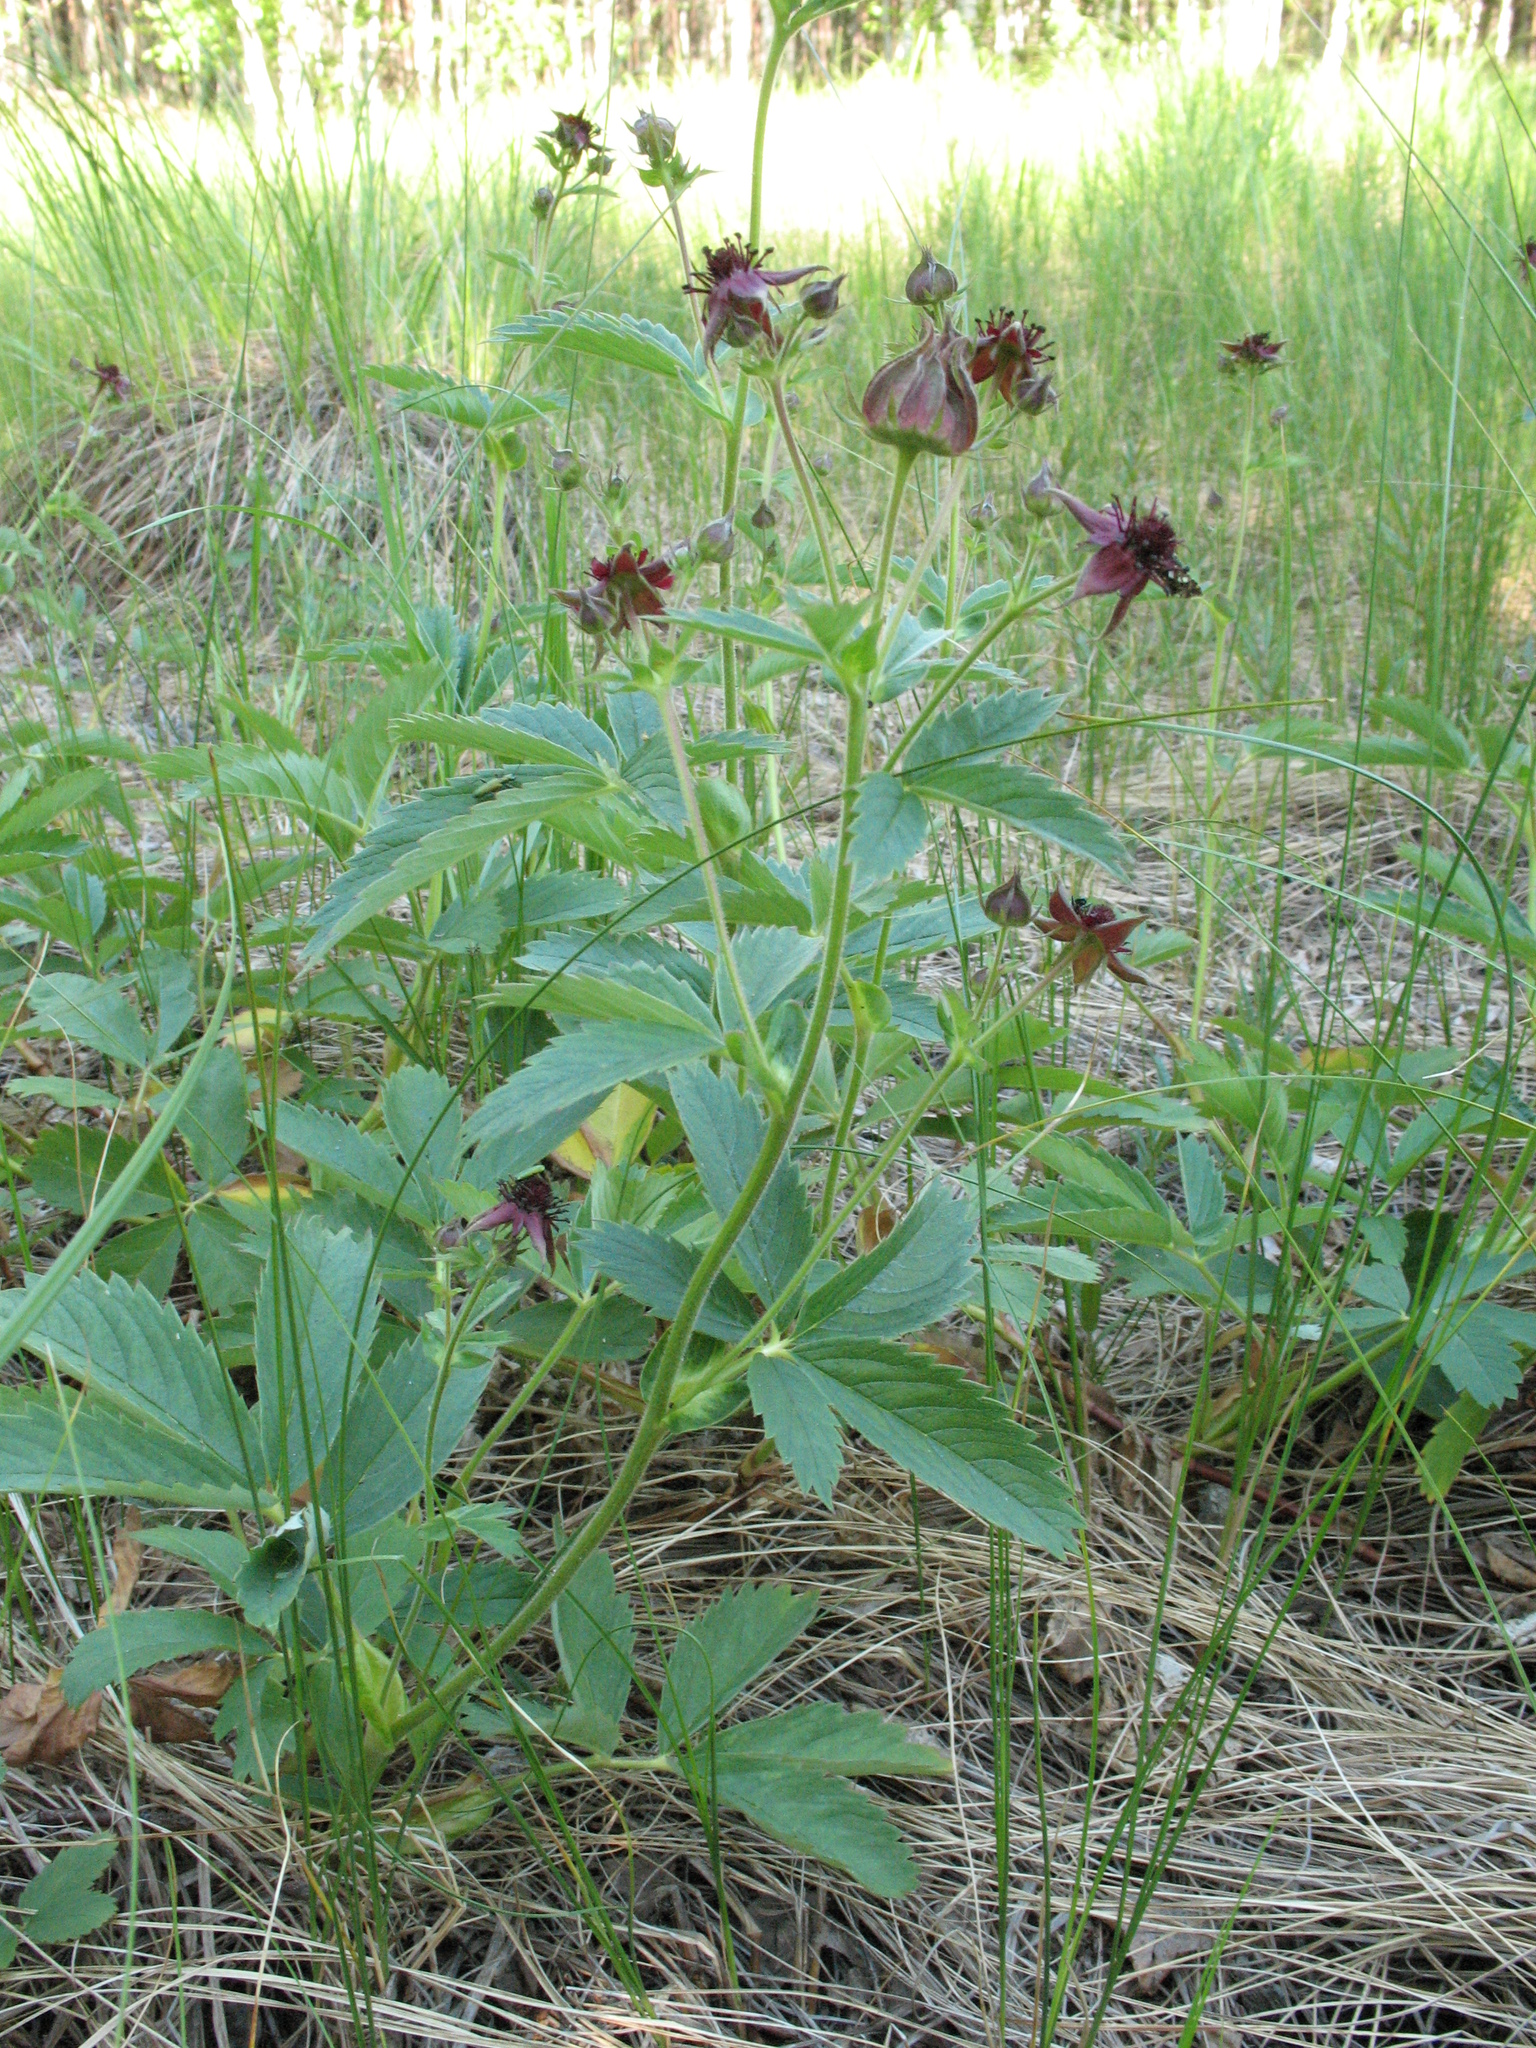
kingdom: Plantae
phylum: Tracheophyta
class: Magnoliopsida
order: Rosales
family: Rosaceae
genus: Comarum
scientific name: Comarum palustre
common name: Marsh cinquefoil
